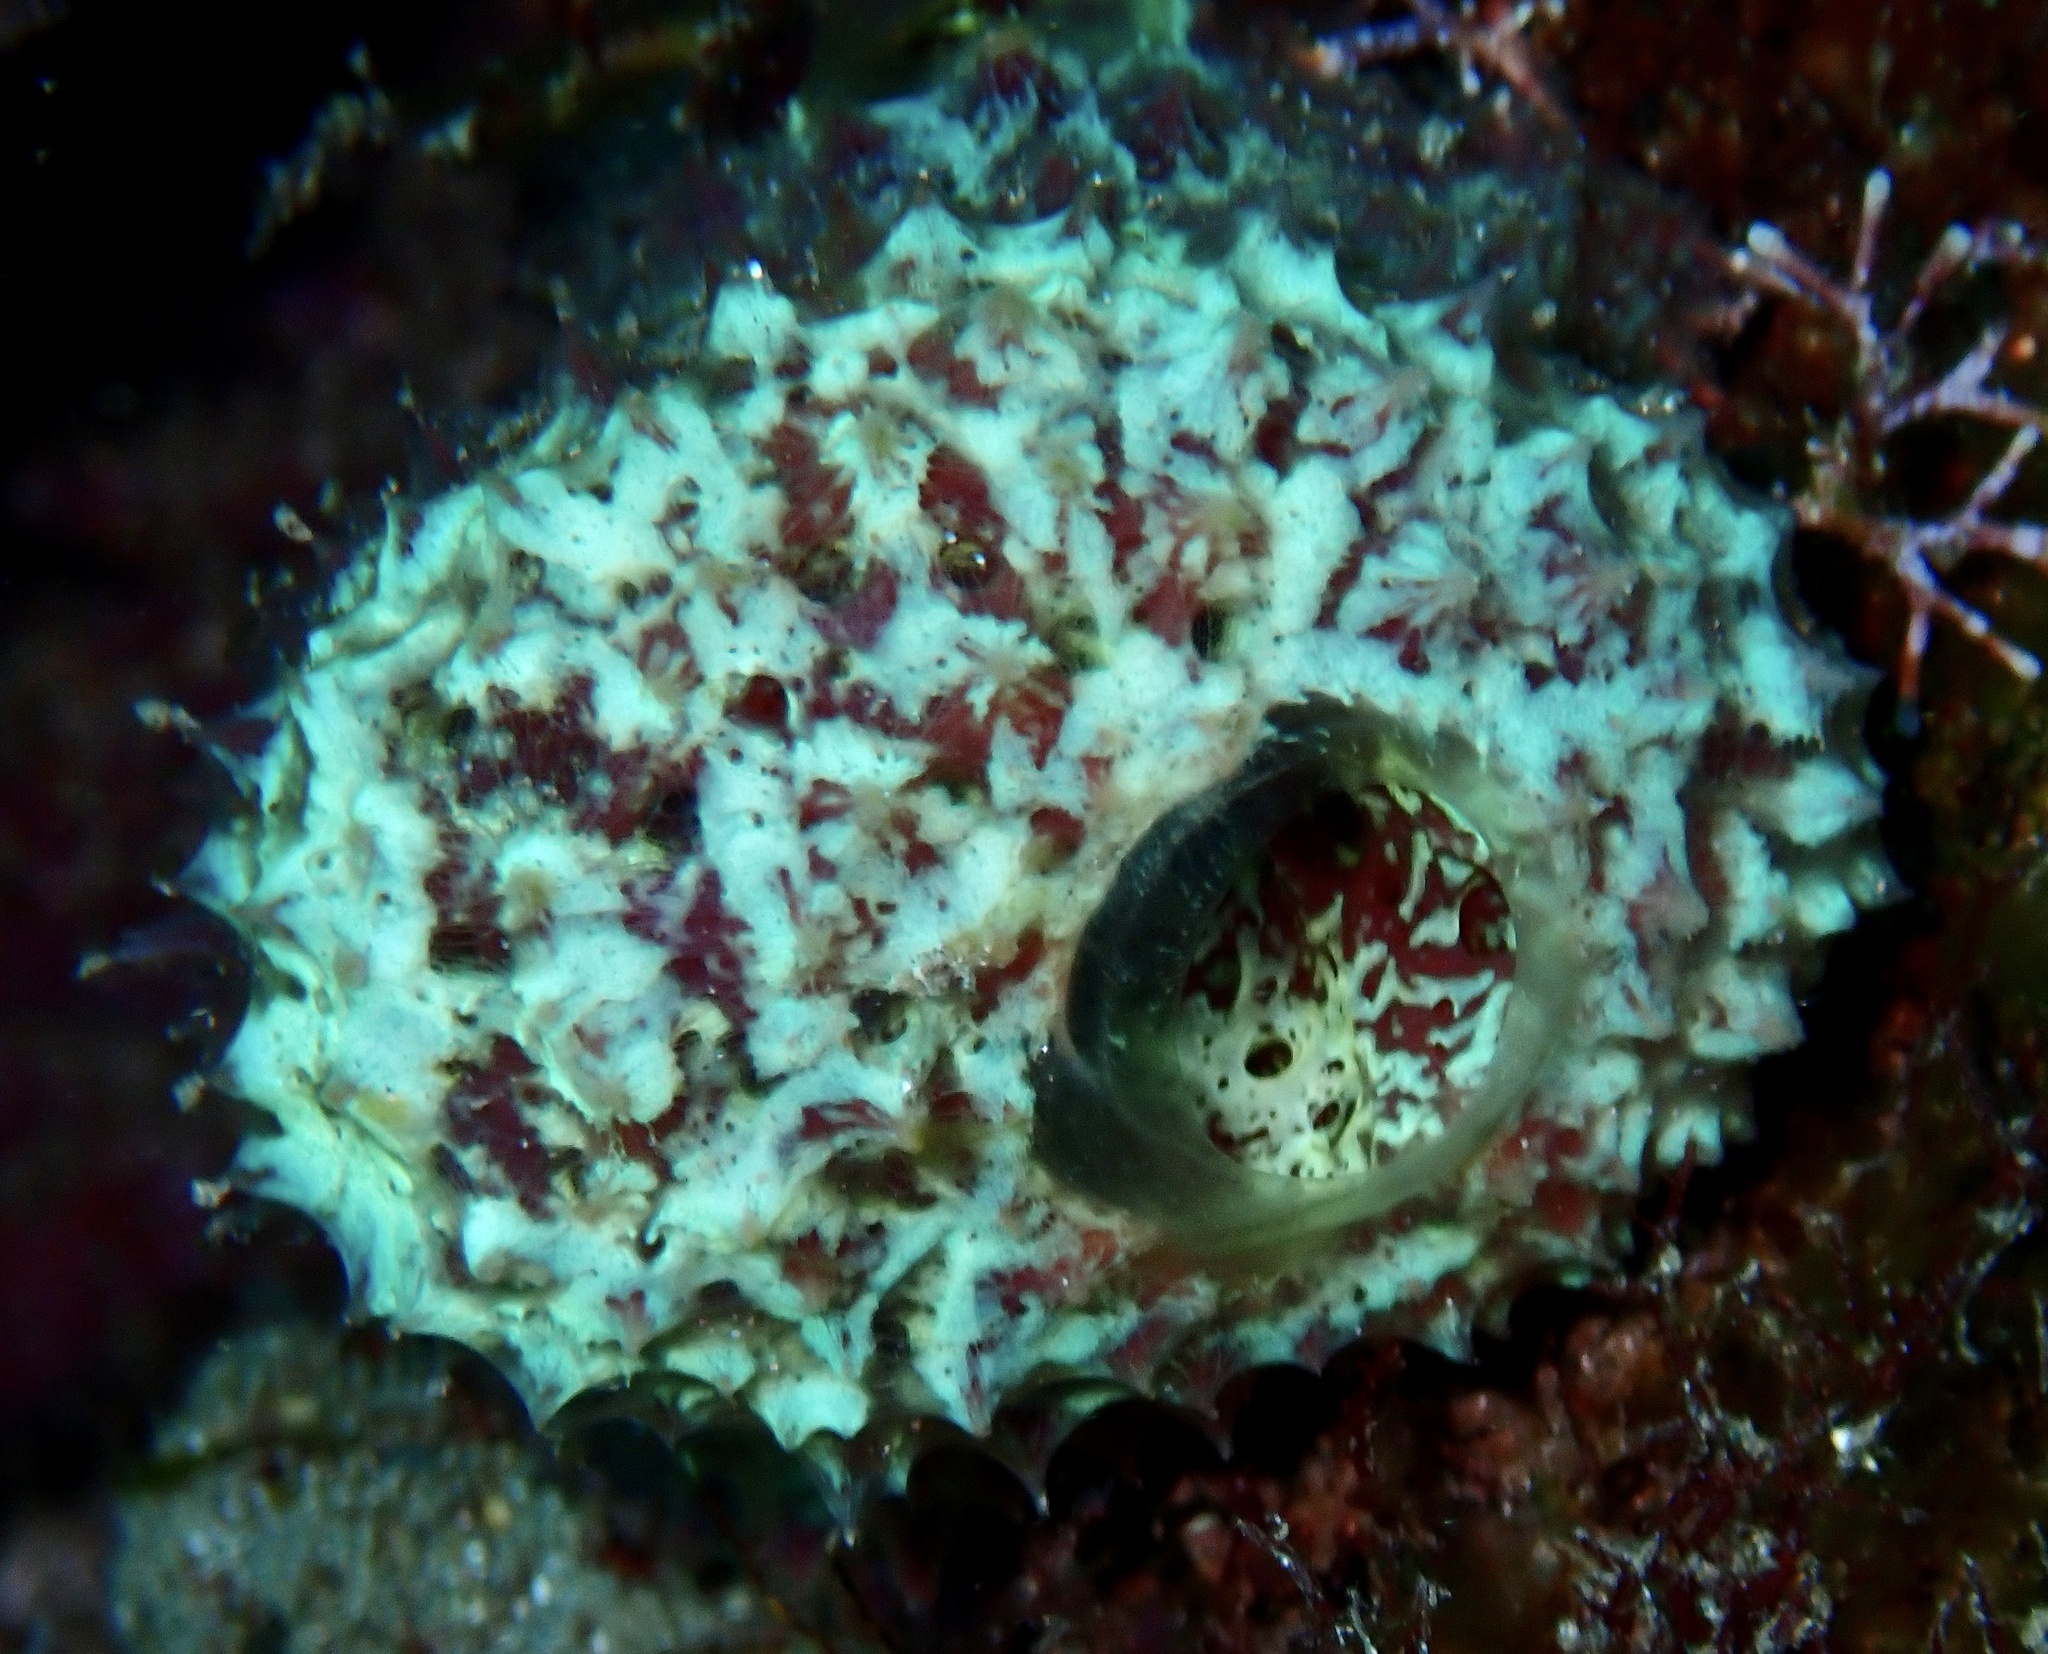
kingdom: Animalia
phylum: Porifera
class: Demospongiae
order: Poecilosclerida
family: Mycalidae
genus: Mycale
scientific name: Mycale laxissima
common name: Strawberry vase sponge
